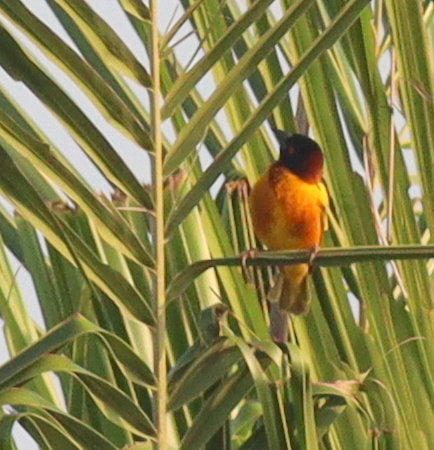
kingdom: Animalia
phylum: Chordata
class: Aves
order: Passeriformes
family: Ploceidae
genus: Ploceus
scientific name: Ploceus cucullatus
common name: Village weaver
